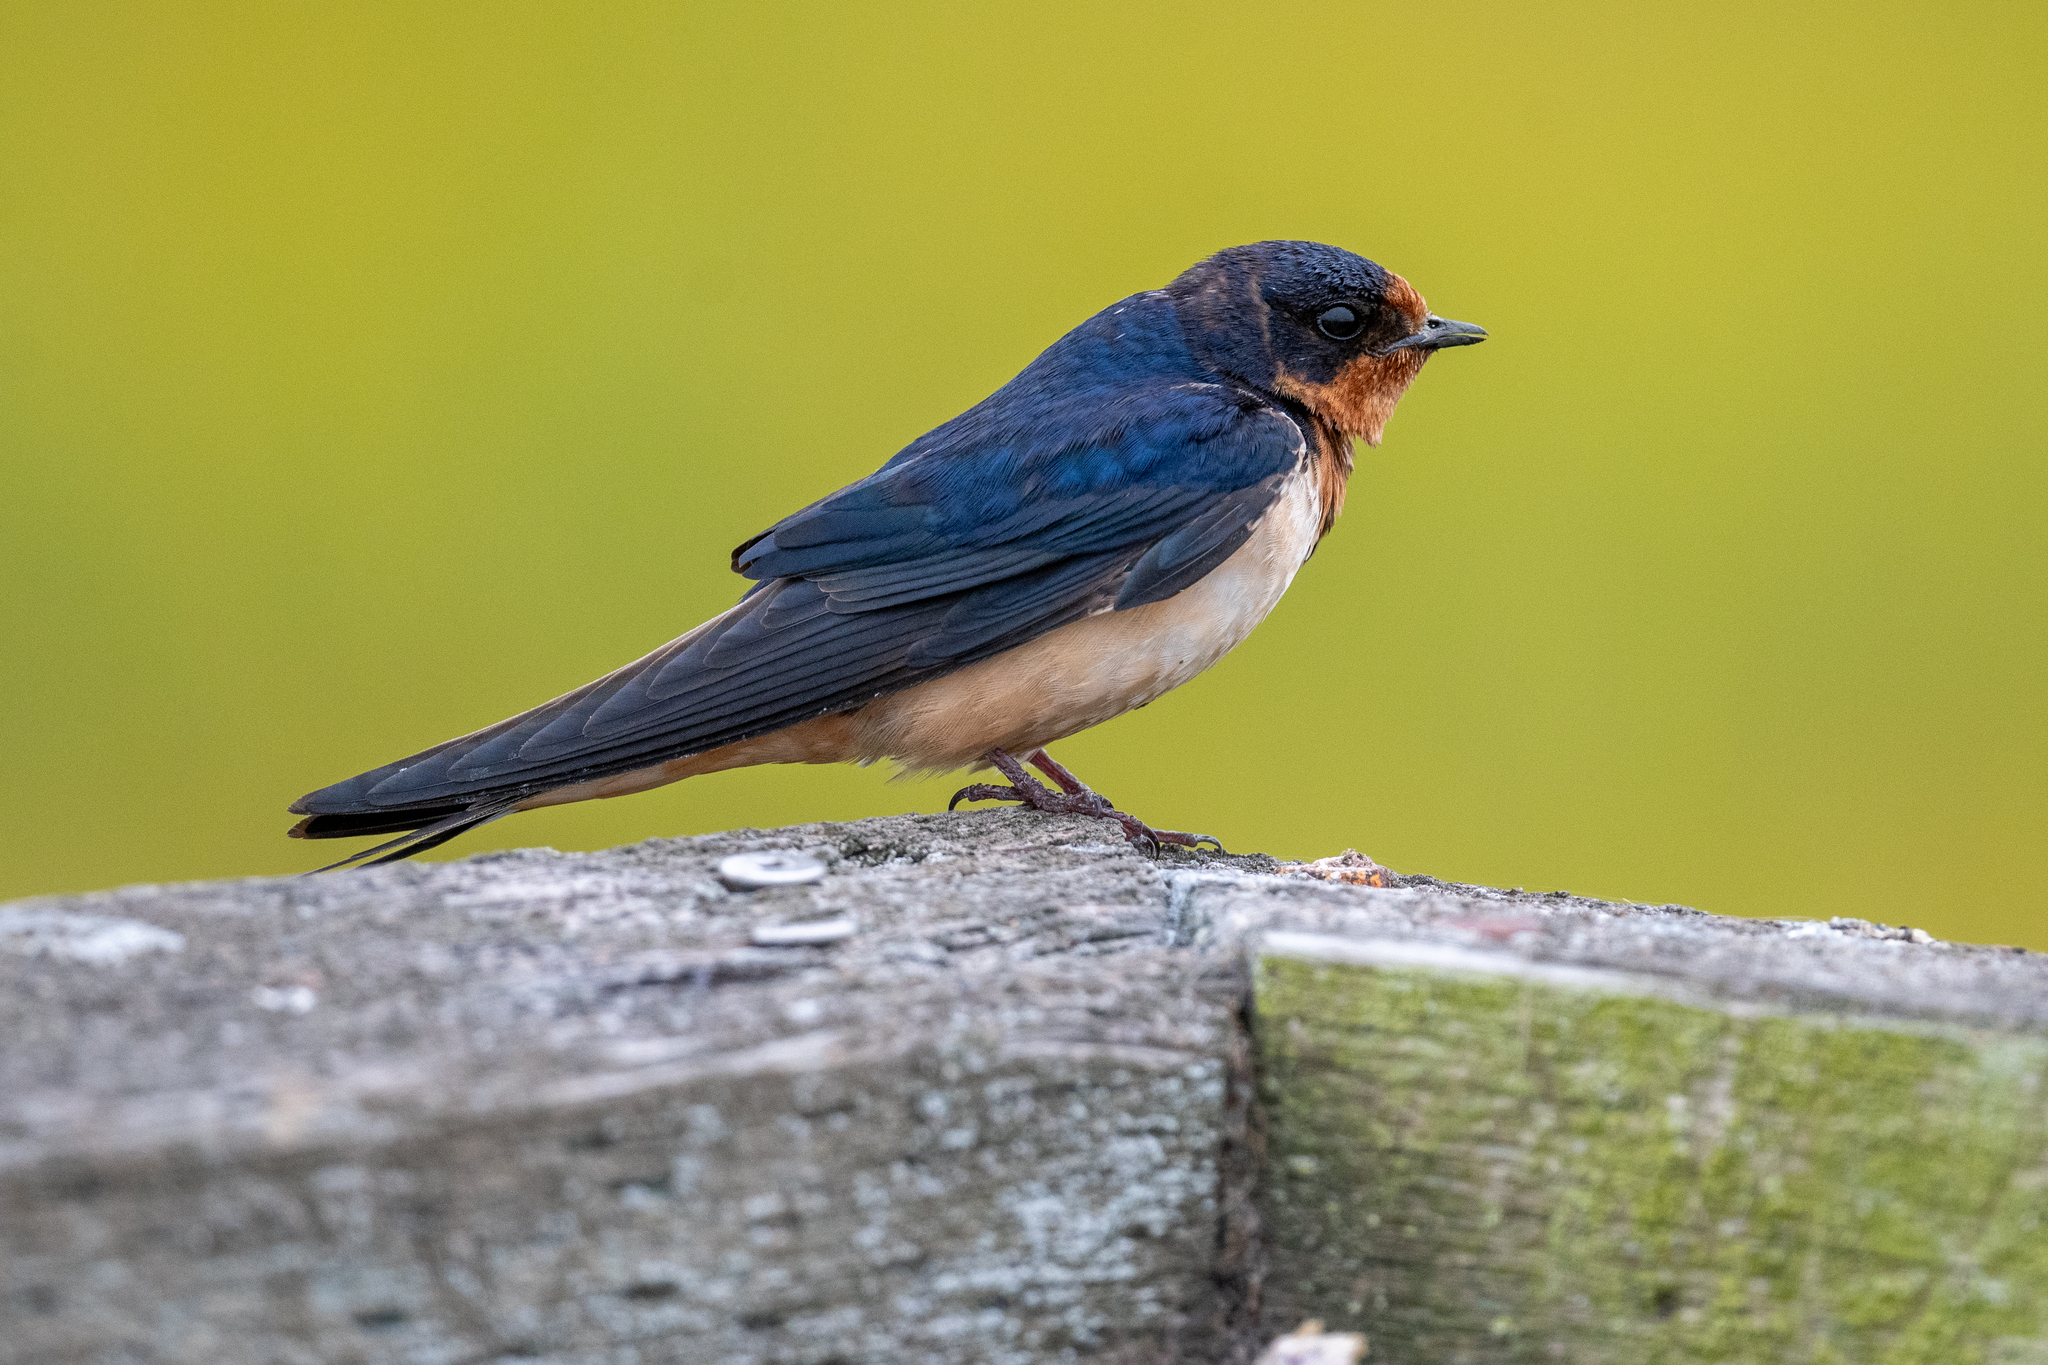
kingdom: Animalia
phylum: Chordata
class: Aves
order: Passeriformes
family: Hirundinidae
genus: Hirundo
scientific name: Hirundo rustica
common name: Barn swallow
